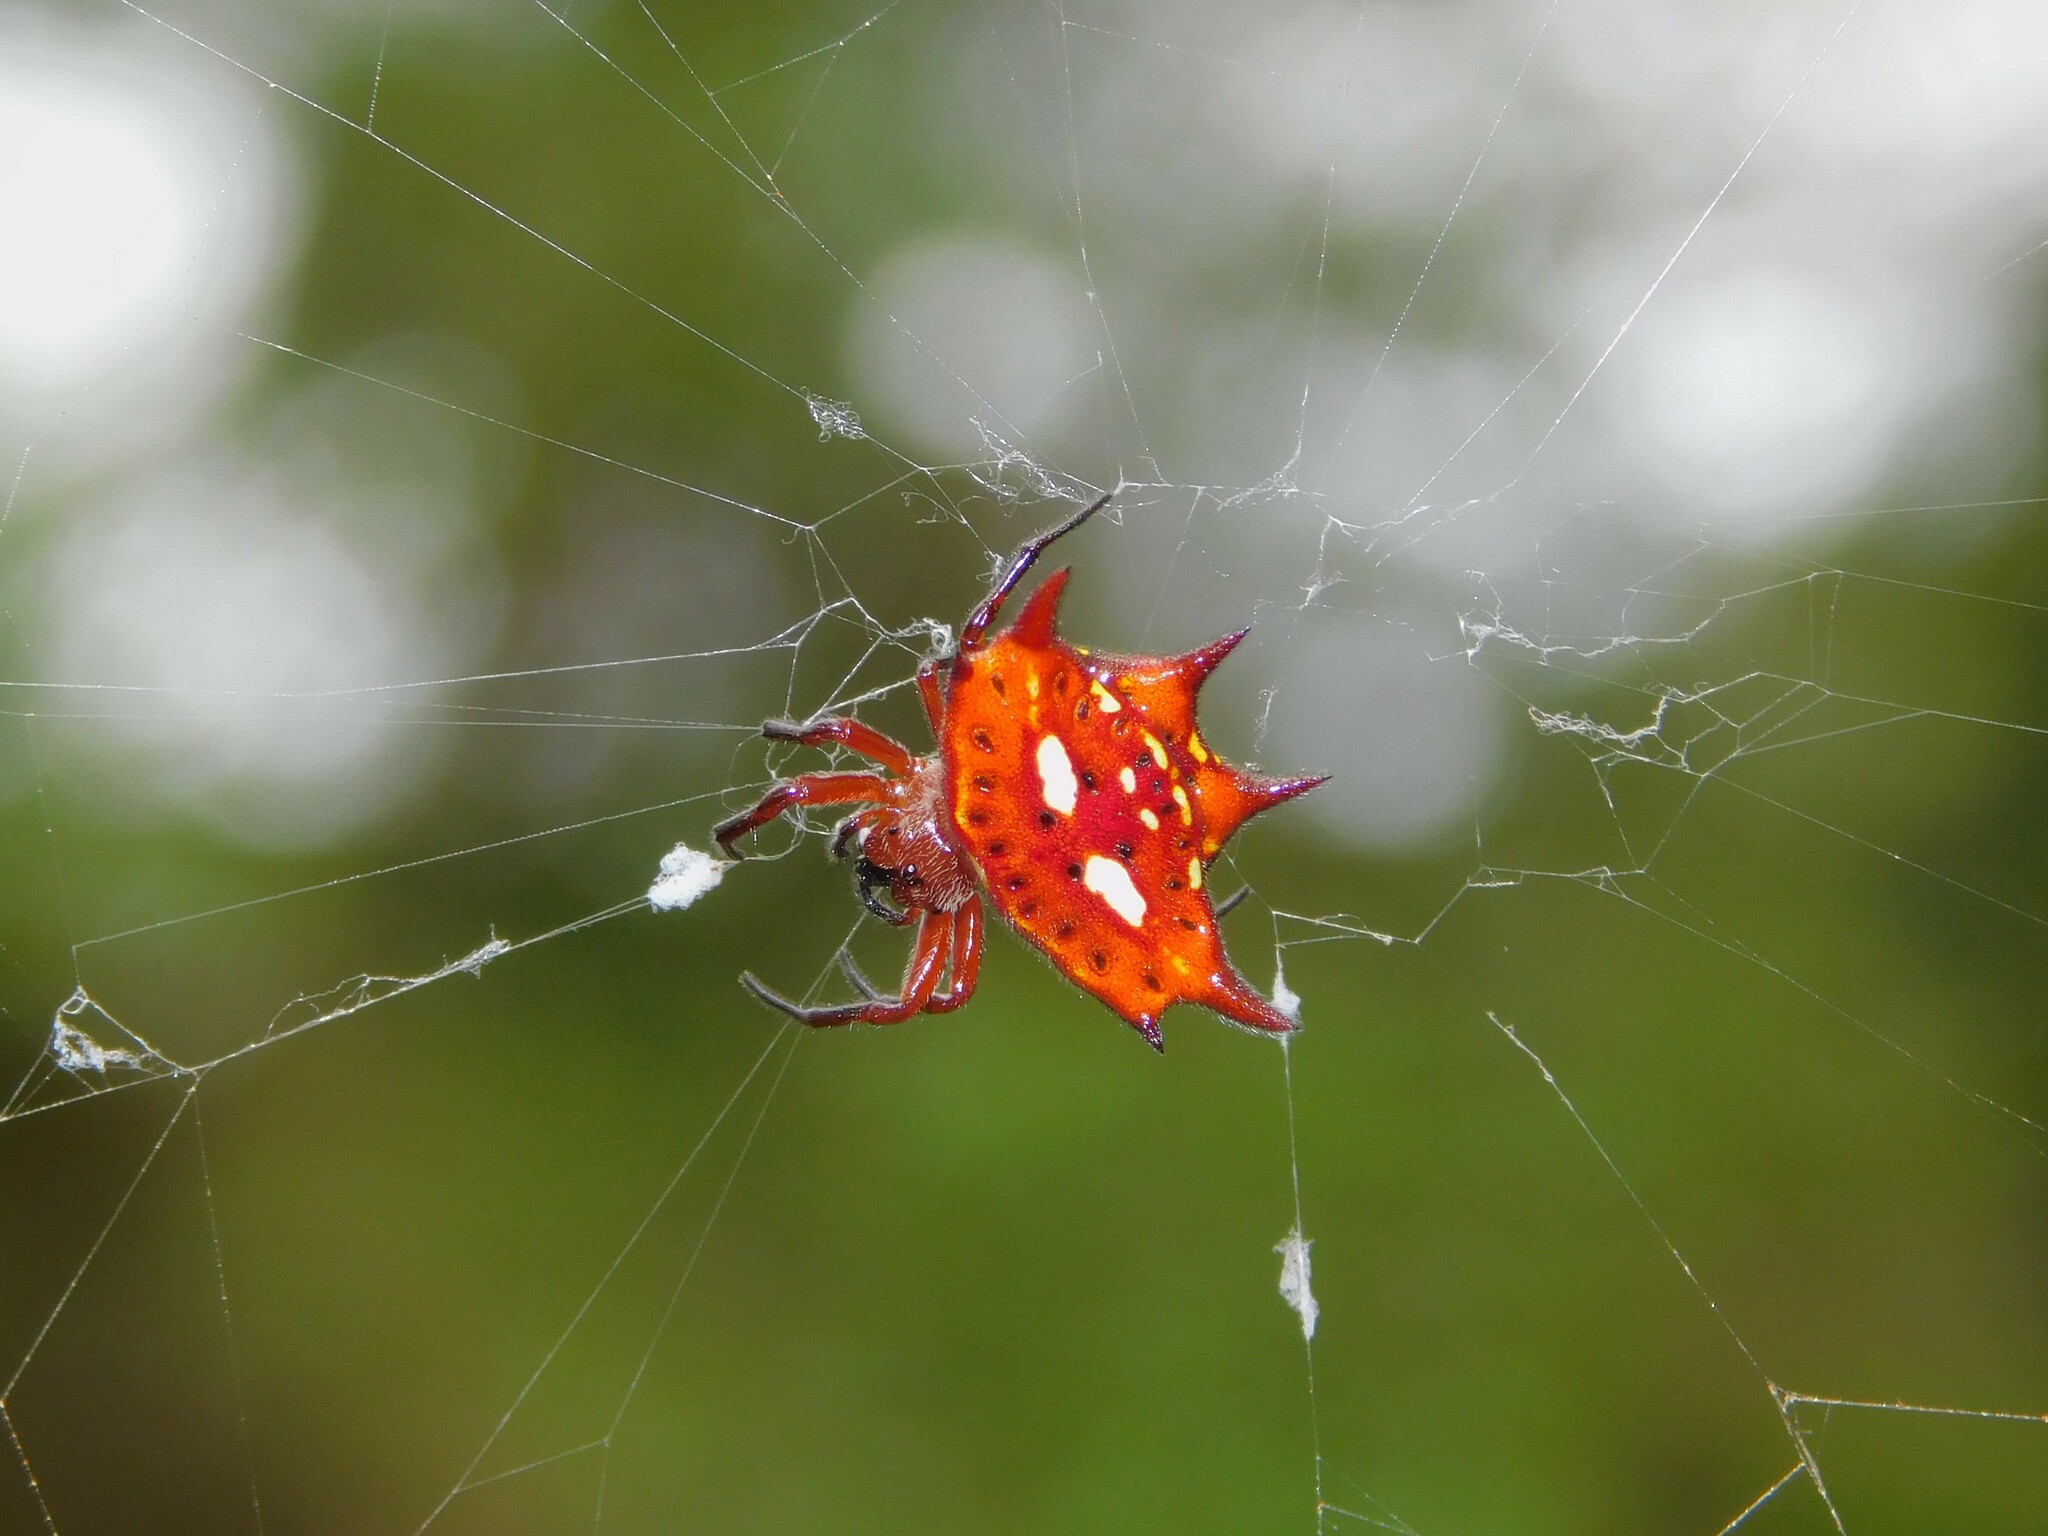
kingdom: Animalia
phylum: Arthropoda
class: Arachnida
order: Araneae
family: Araneidae
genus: Gasteracantha
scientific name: Gasteracantha sanguinolenta
